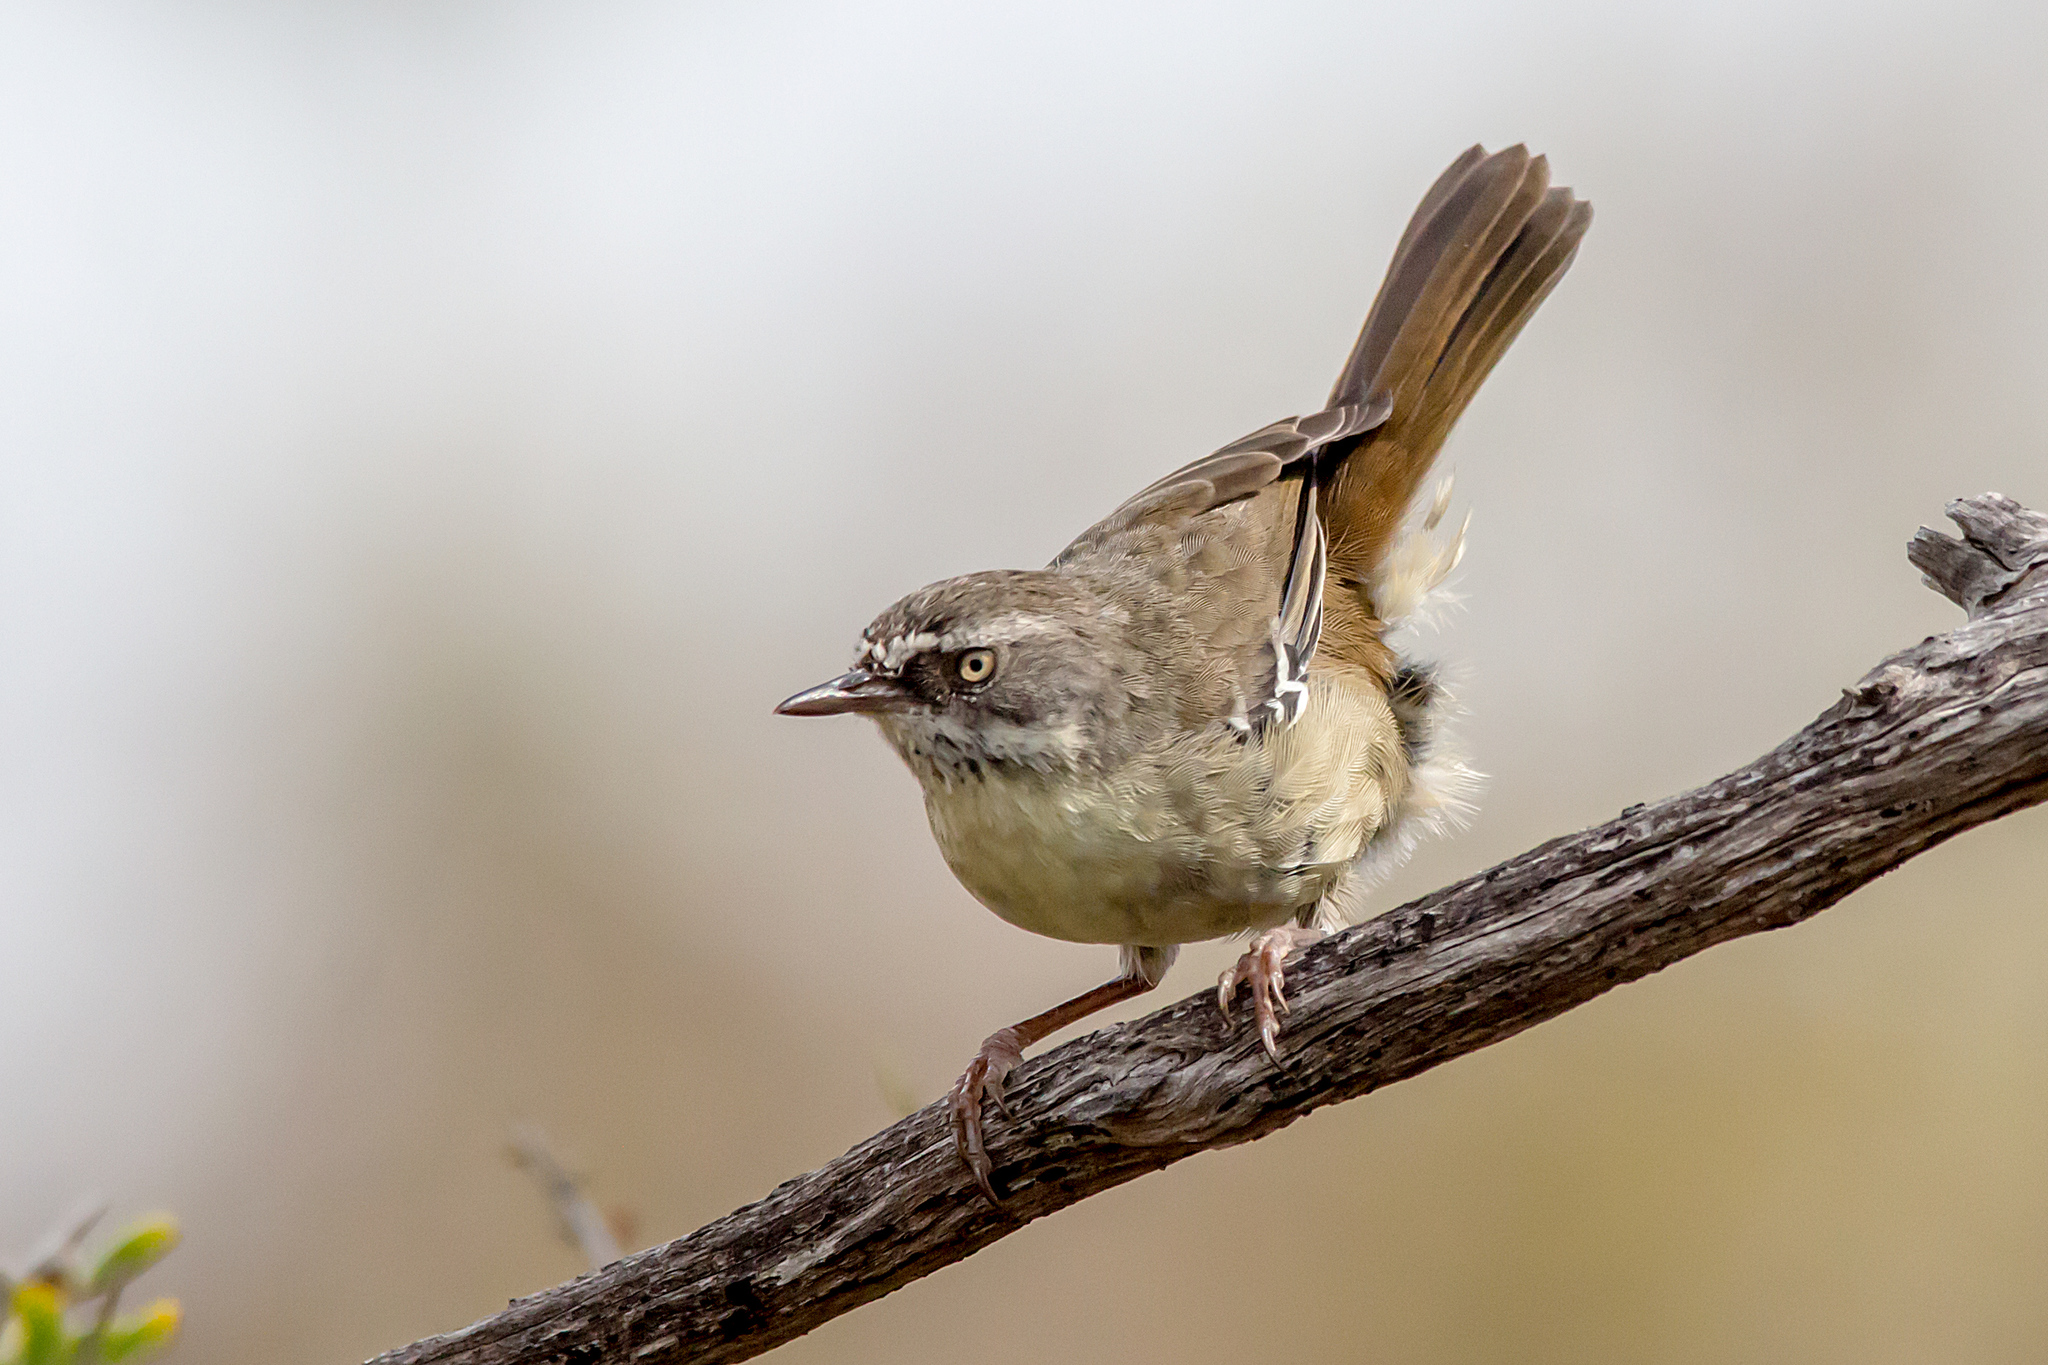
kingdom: Animalia
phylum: Chordata
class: Aves
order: Passeriformes
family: Acanthizidae
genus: Sericornis
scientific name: Sericornis frontalis
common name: White-browed scrubwren
